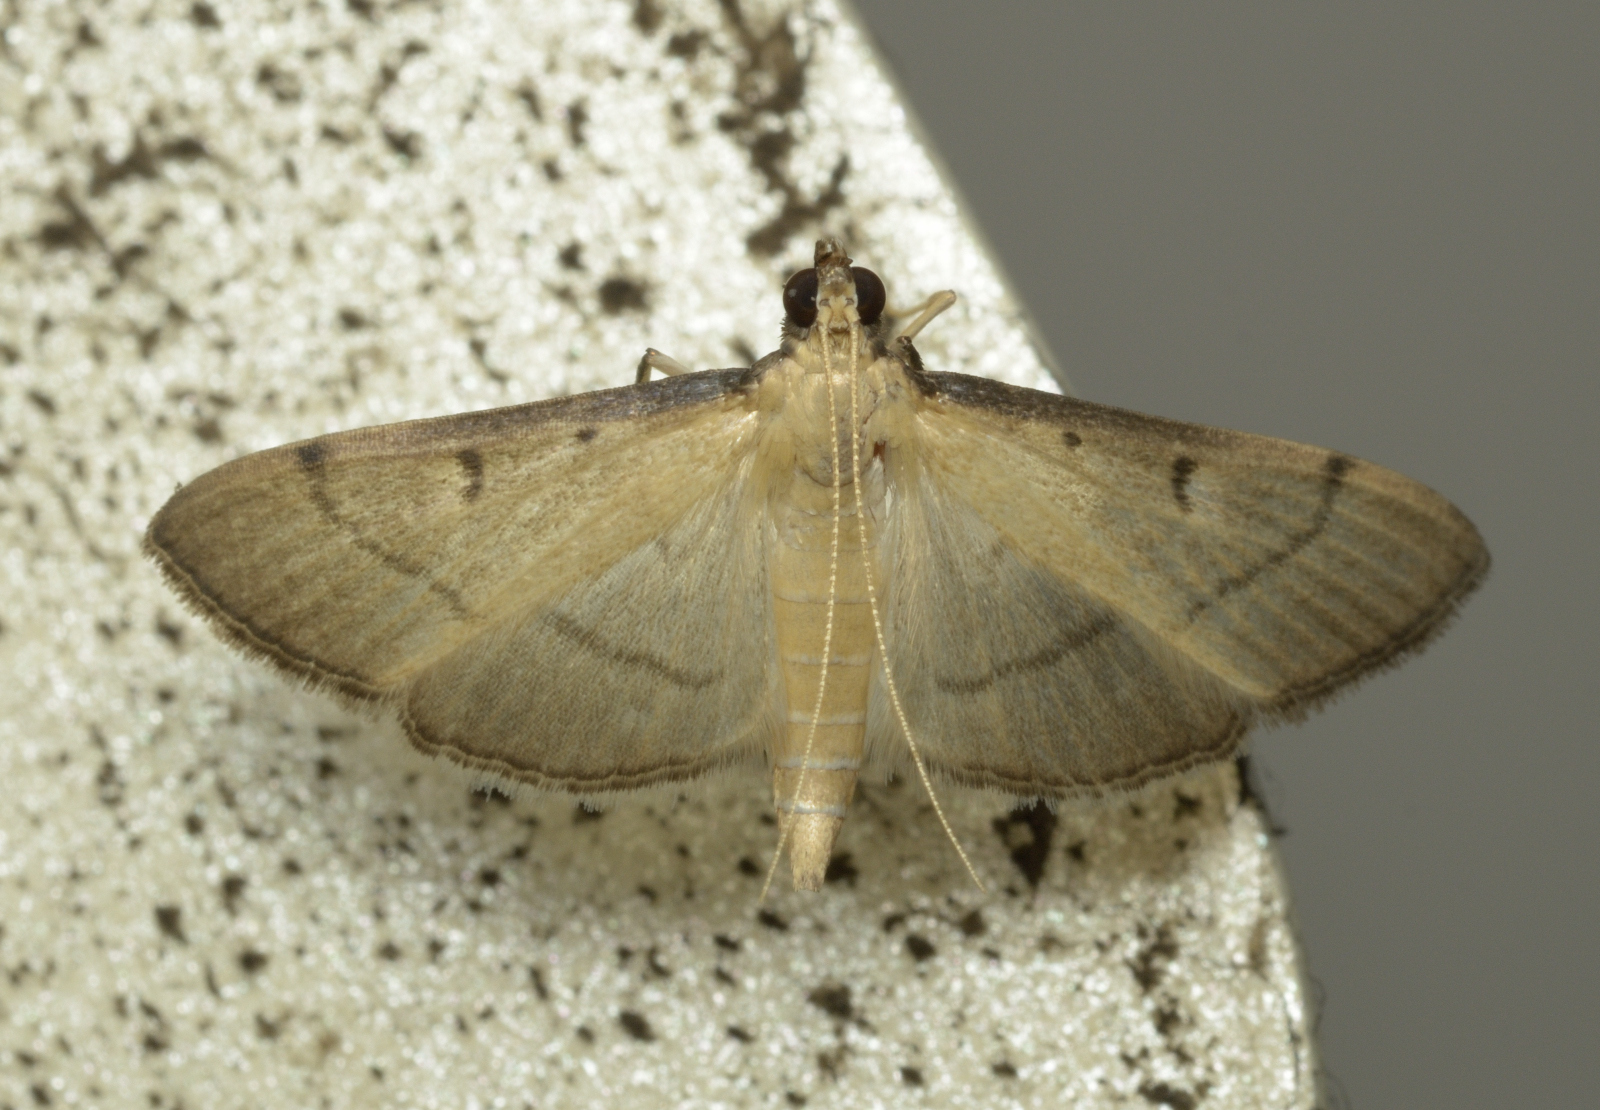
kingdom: Animalia
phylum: Arthropoda
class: Insecta
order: Lepidoptera
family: Crambidae
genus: Bradina
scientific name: Bradina admixtalis
